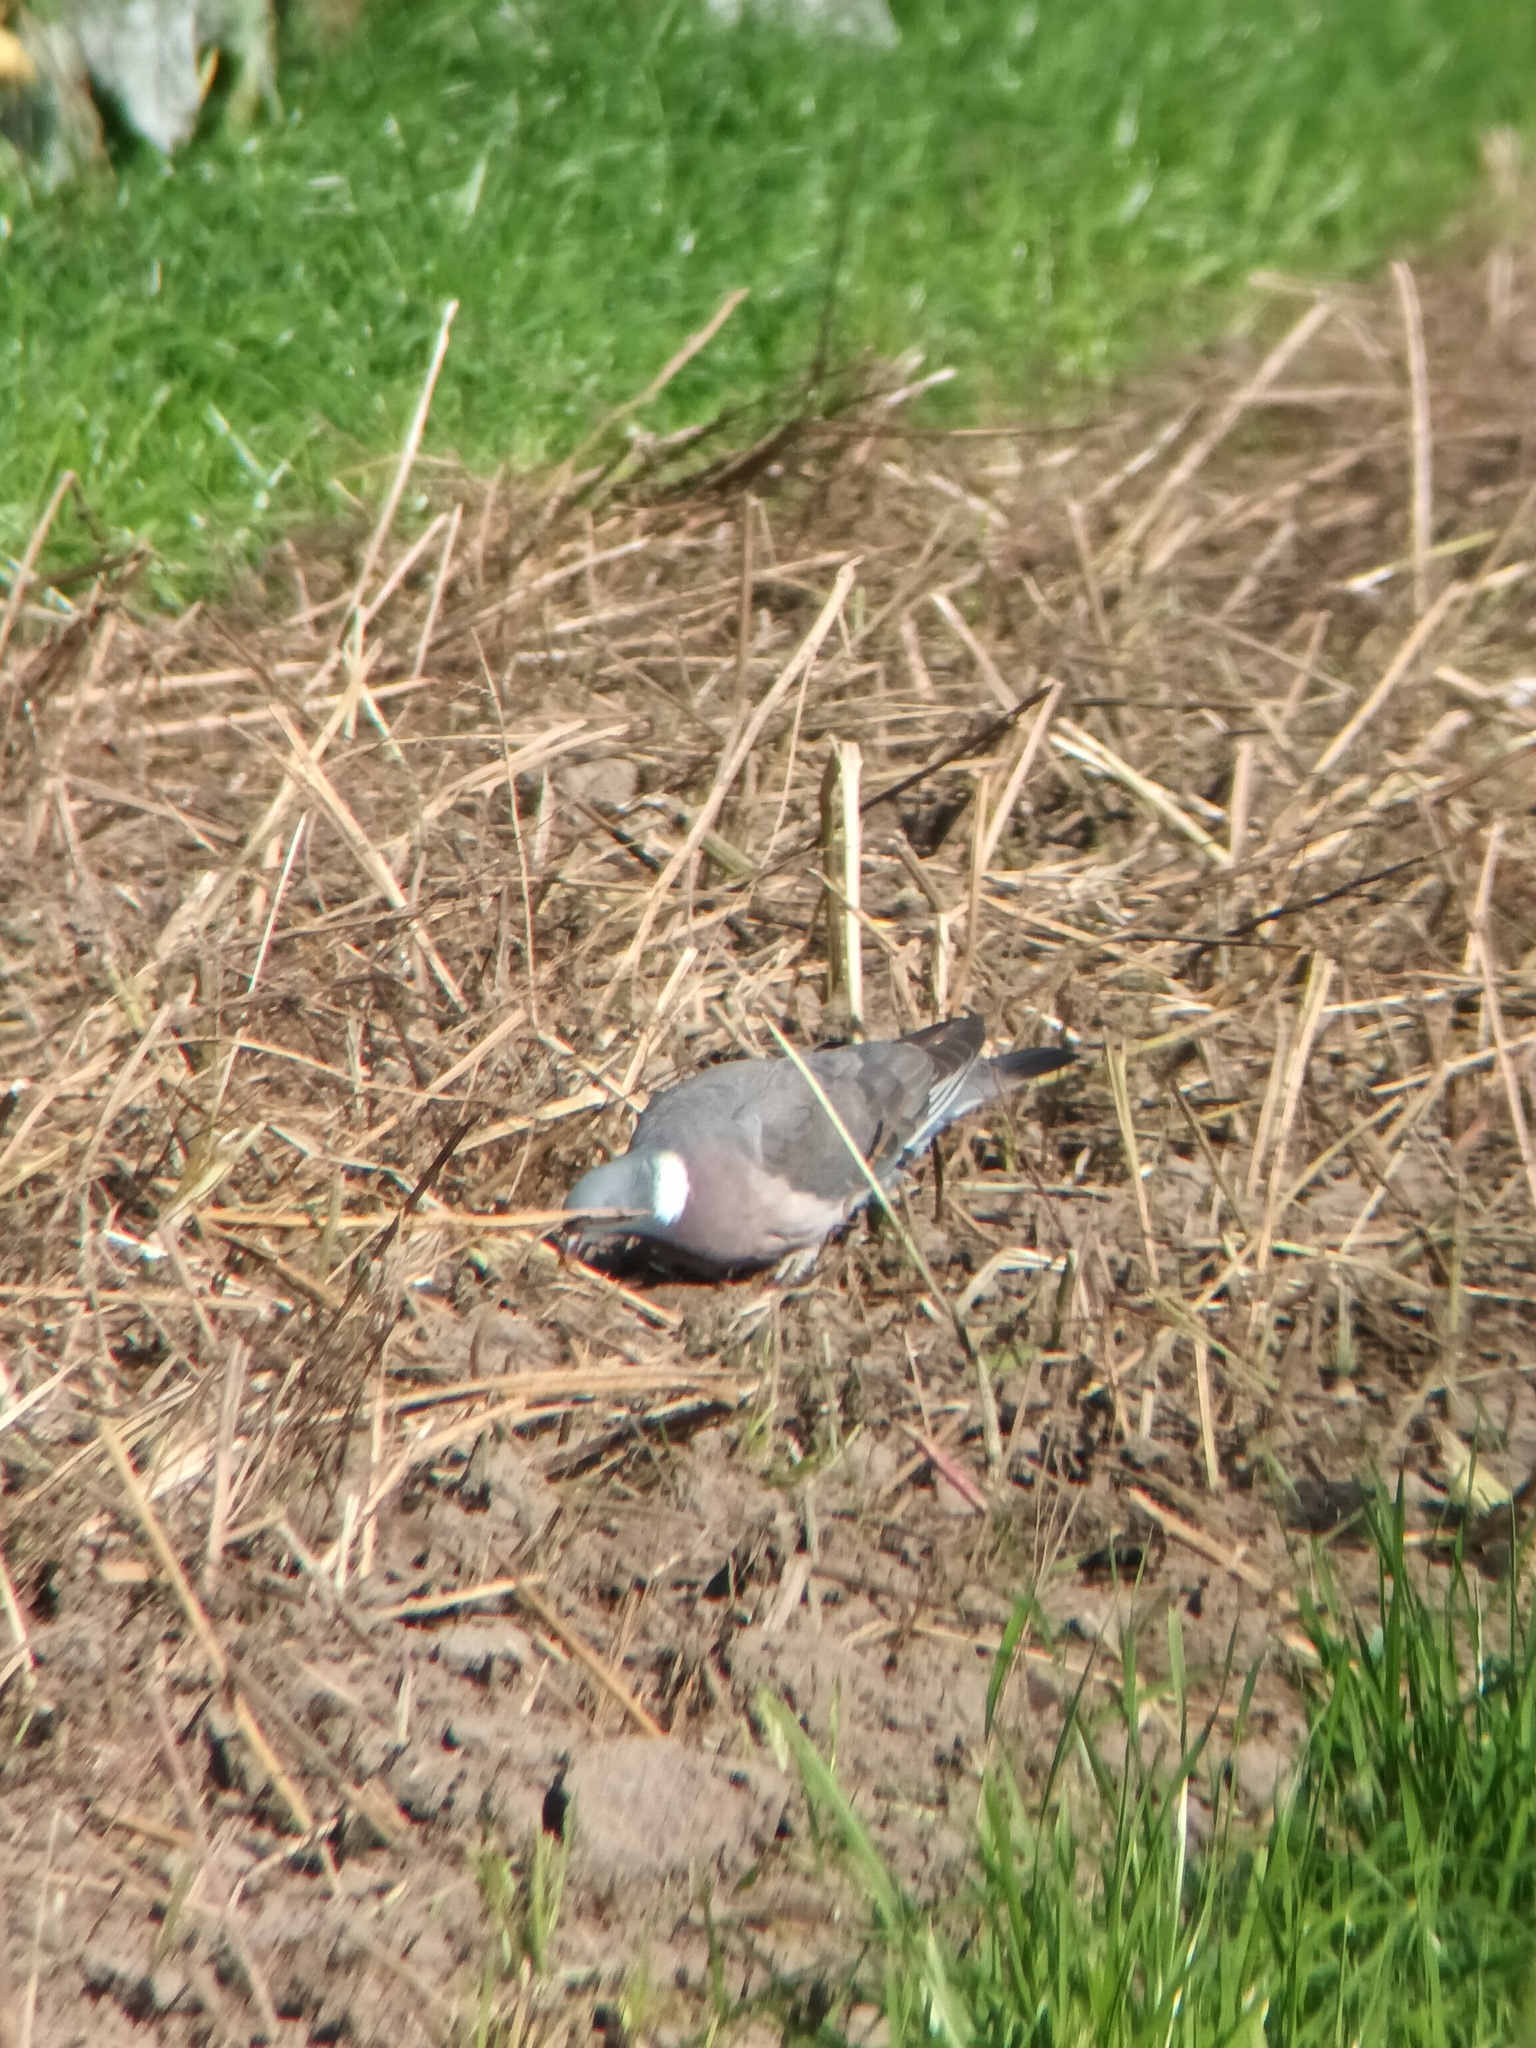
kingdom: Animalia
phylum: Chordata
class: Aves
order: Columbiformes
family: Columbidae
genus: Columba
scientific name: Columba palumbus
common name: Common wood pigeon
